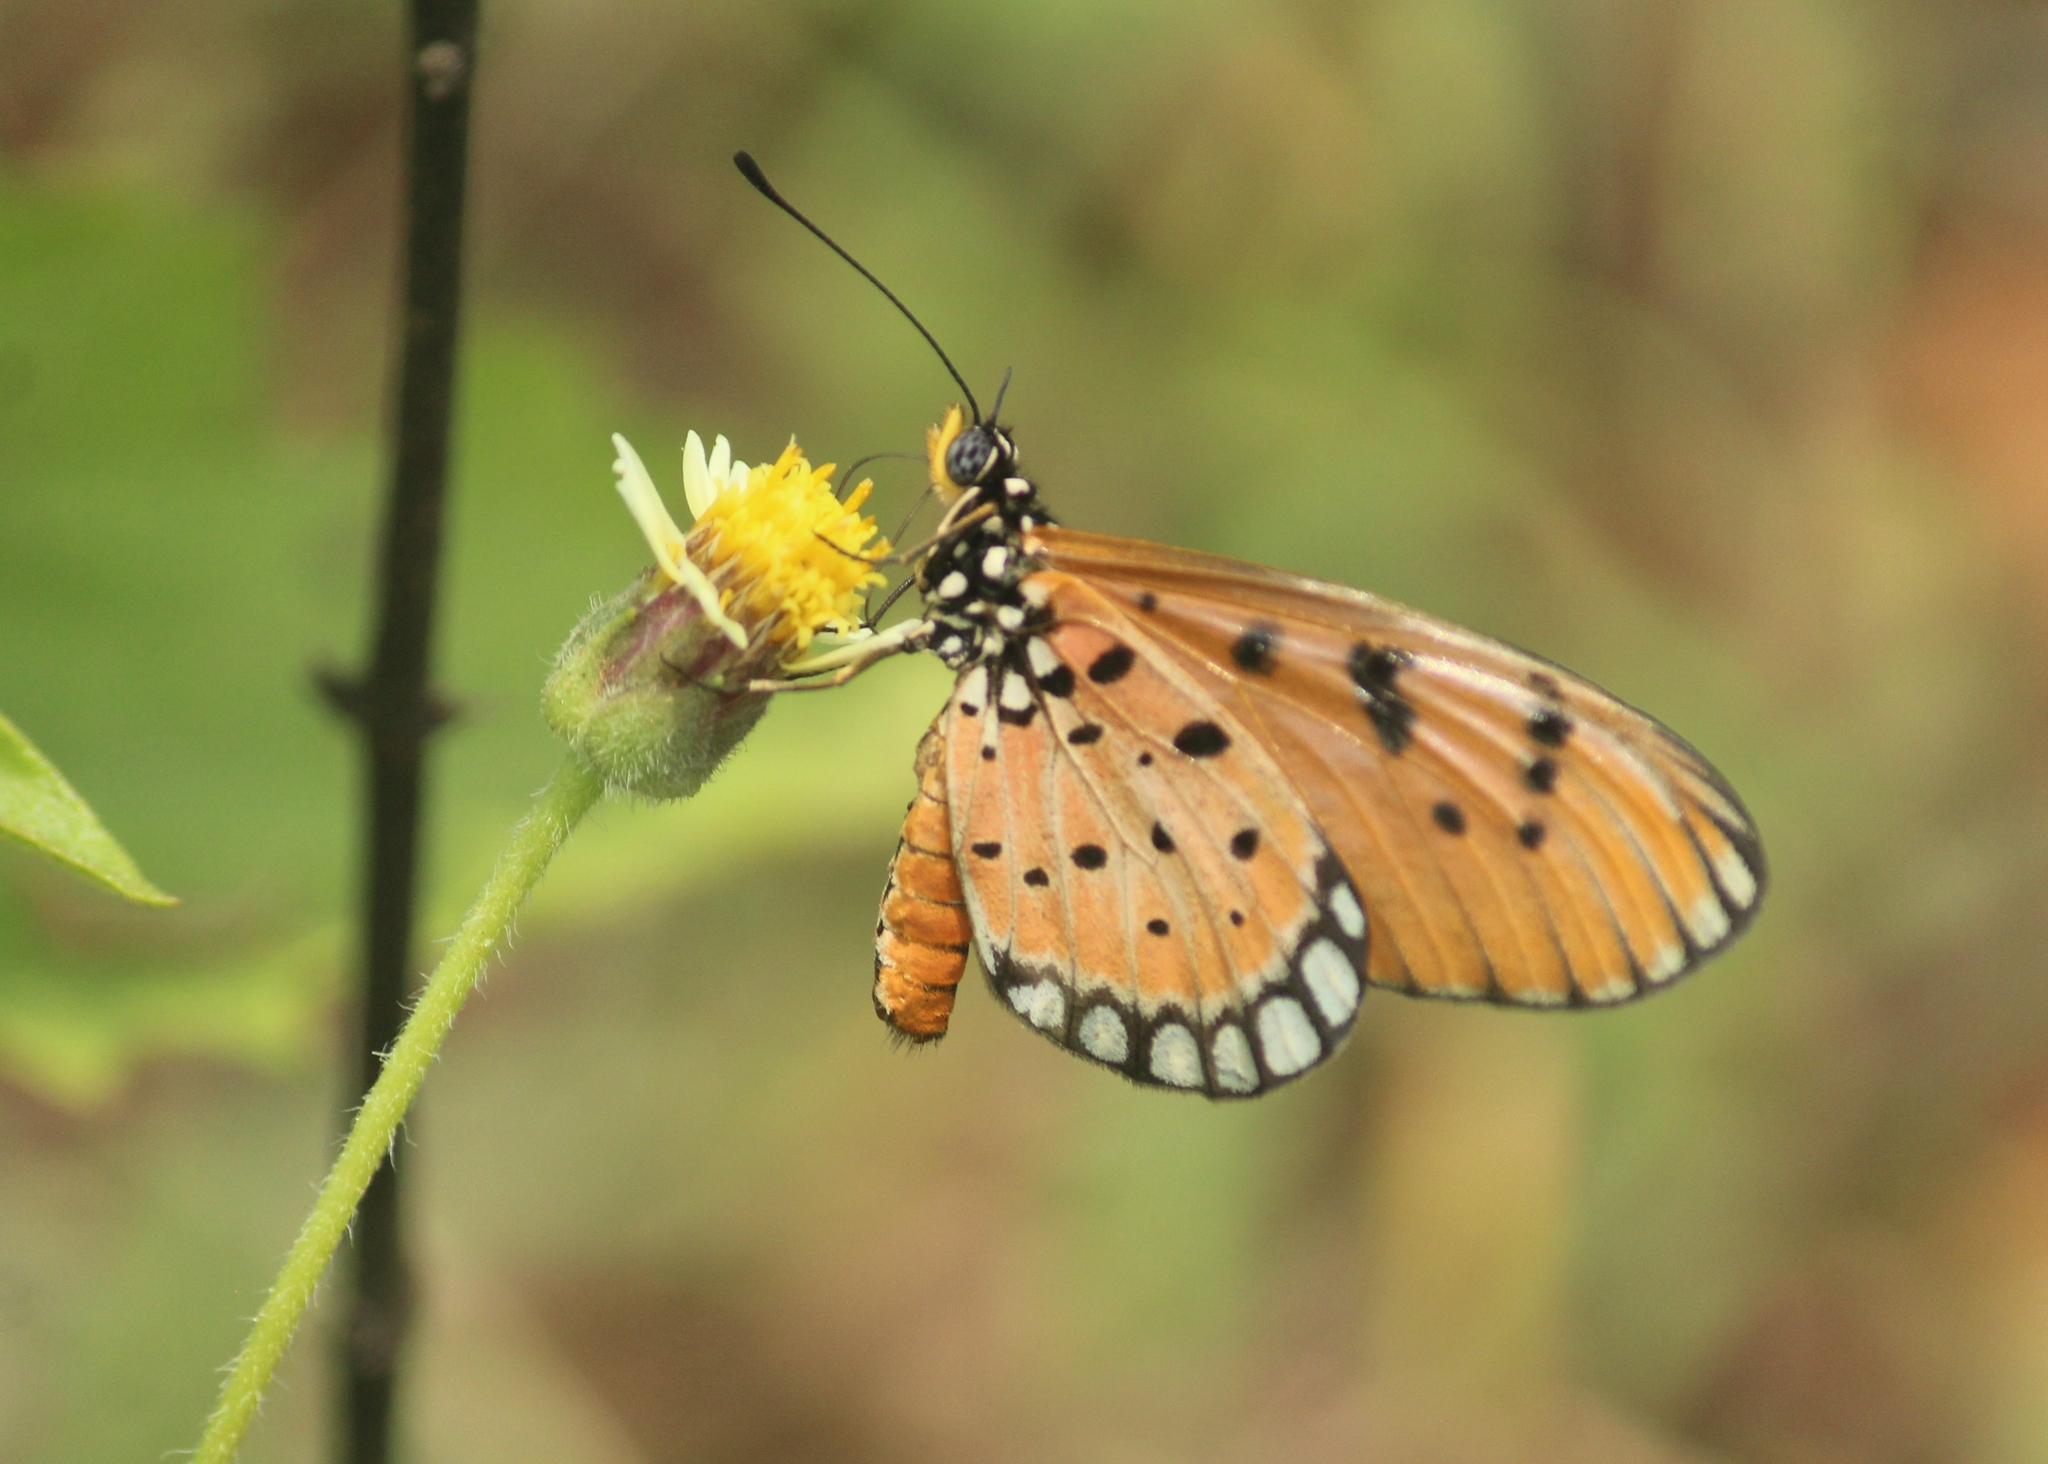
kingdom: Animalia
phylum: Arthropoda
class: Insecta
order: Lepidoptera
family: Nymphalidae
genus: Acraea
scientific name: Acraea terpsicore
